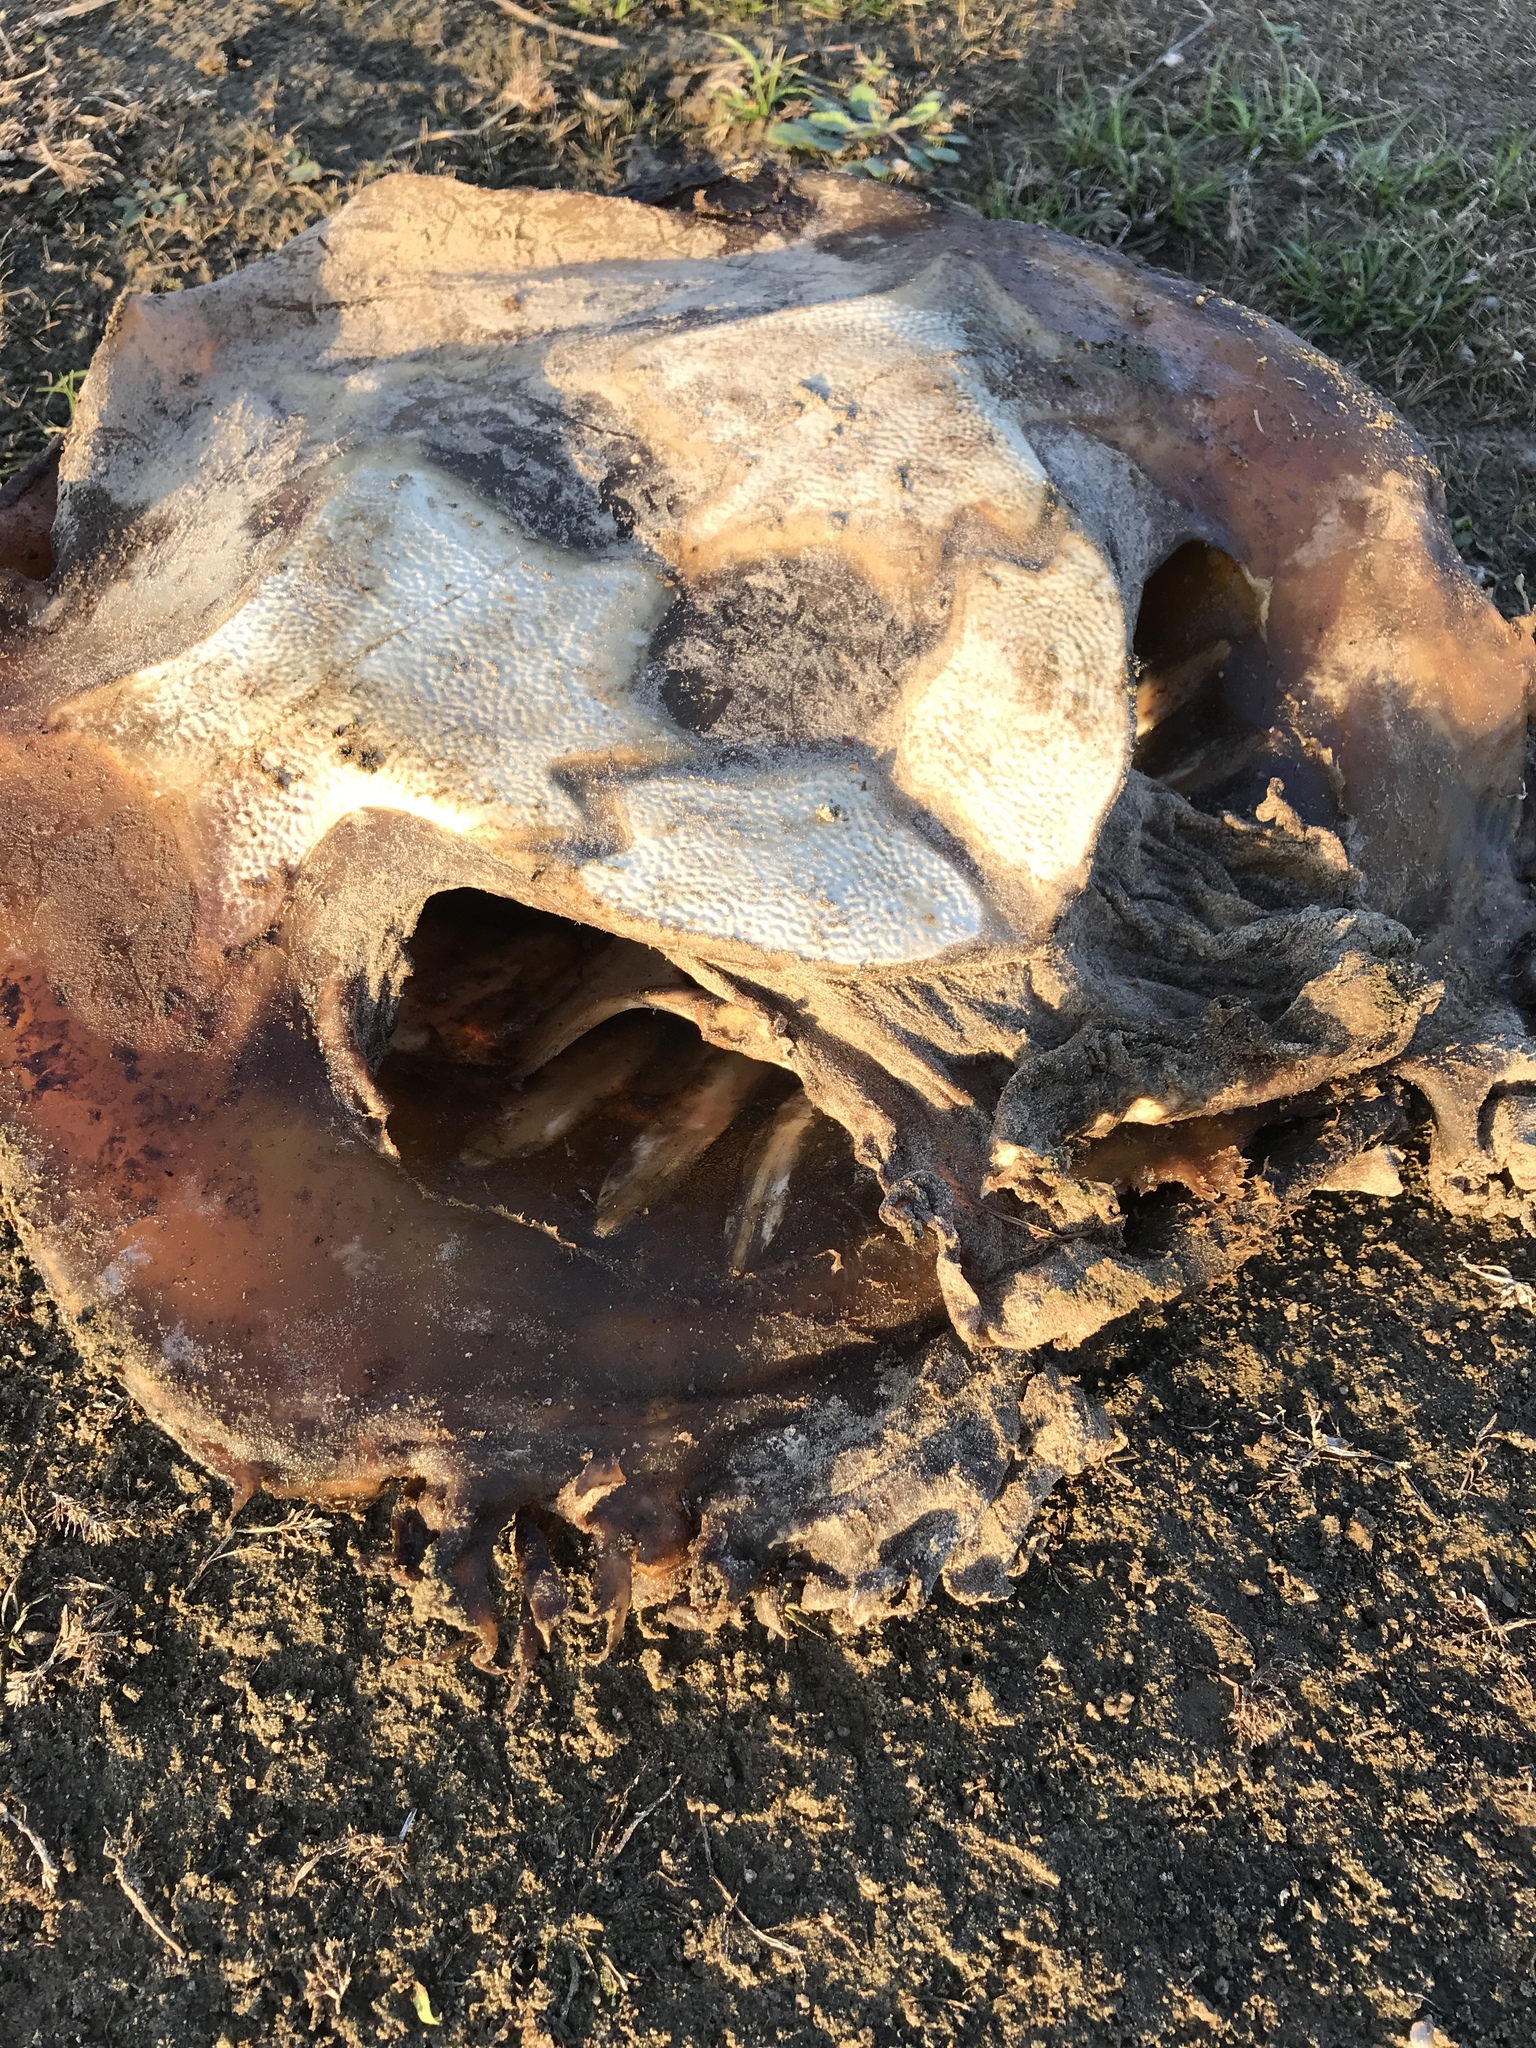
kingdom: Animalia
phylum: Chordata
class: Testudines
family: Trionychidae
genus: Apalone
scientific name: Apalone spinifera
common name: Spiny softshell turtle
